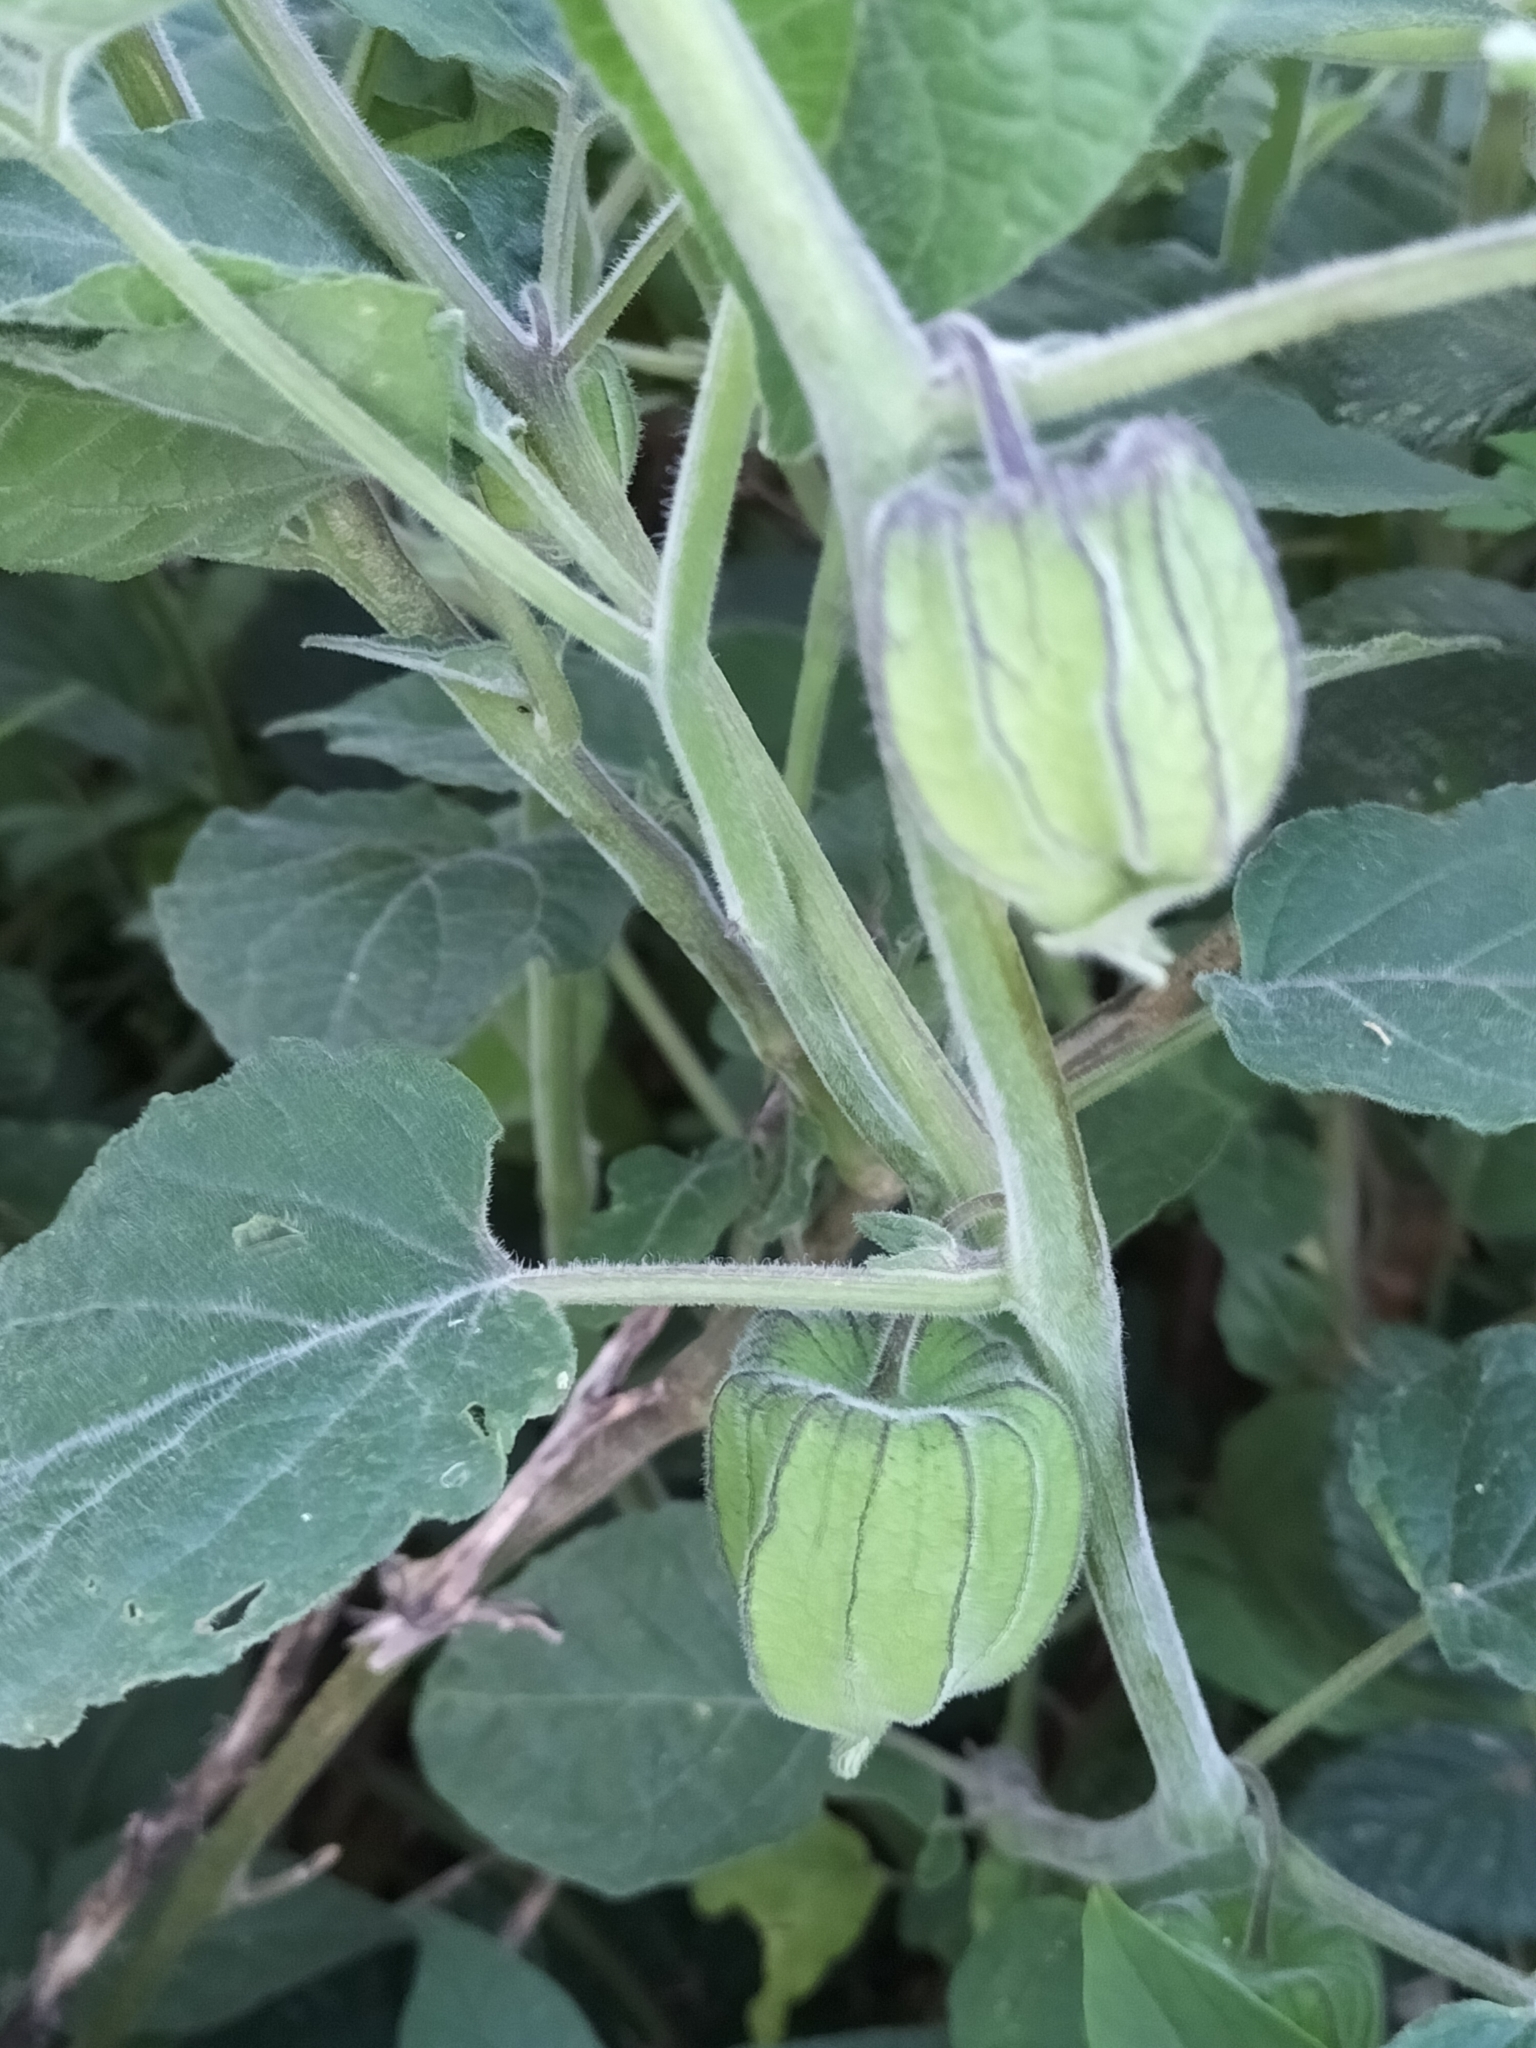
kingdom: Plantae
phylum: Tracheophyta
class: Magnoliopsida
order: Solanales
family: Solanaceae
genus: Physalis
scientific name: Physalis peruviana
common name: Cape-gooseberry
